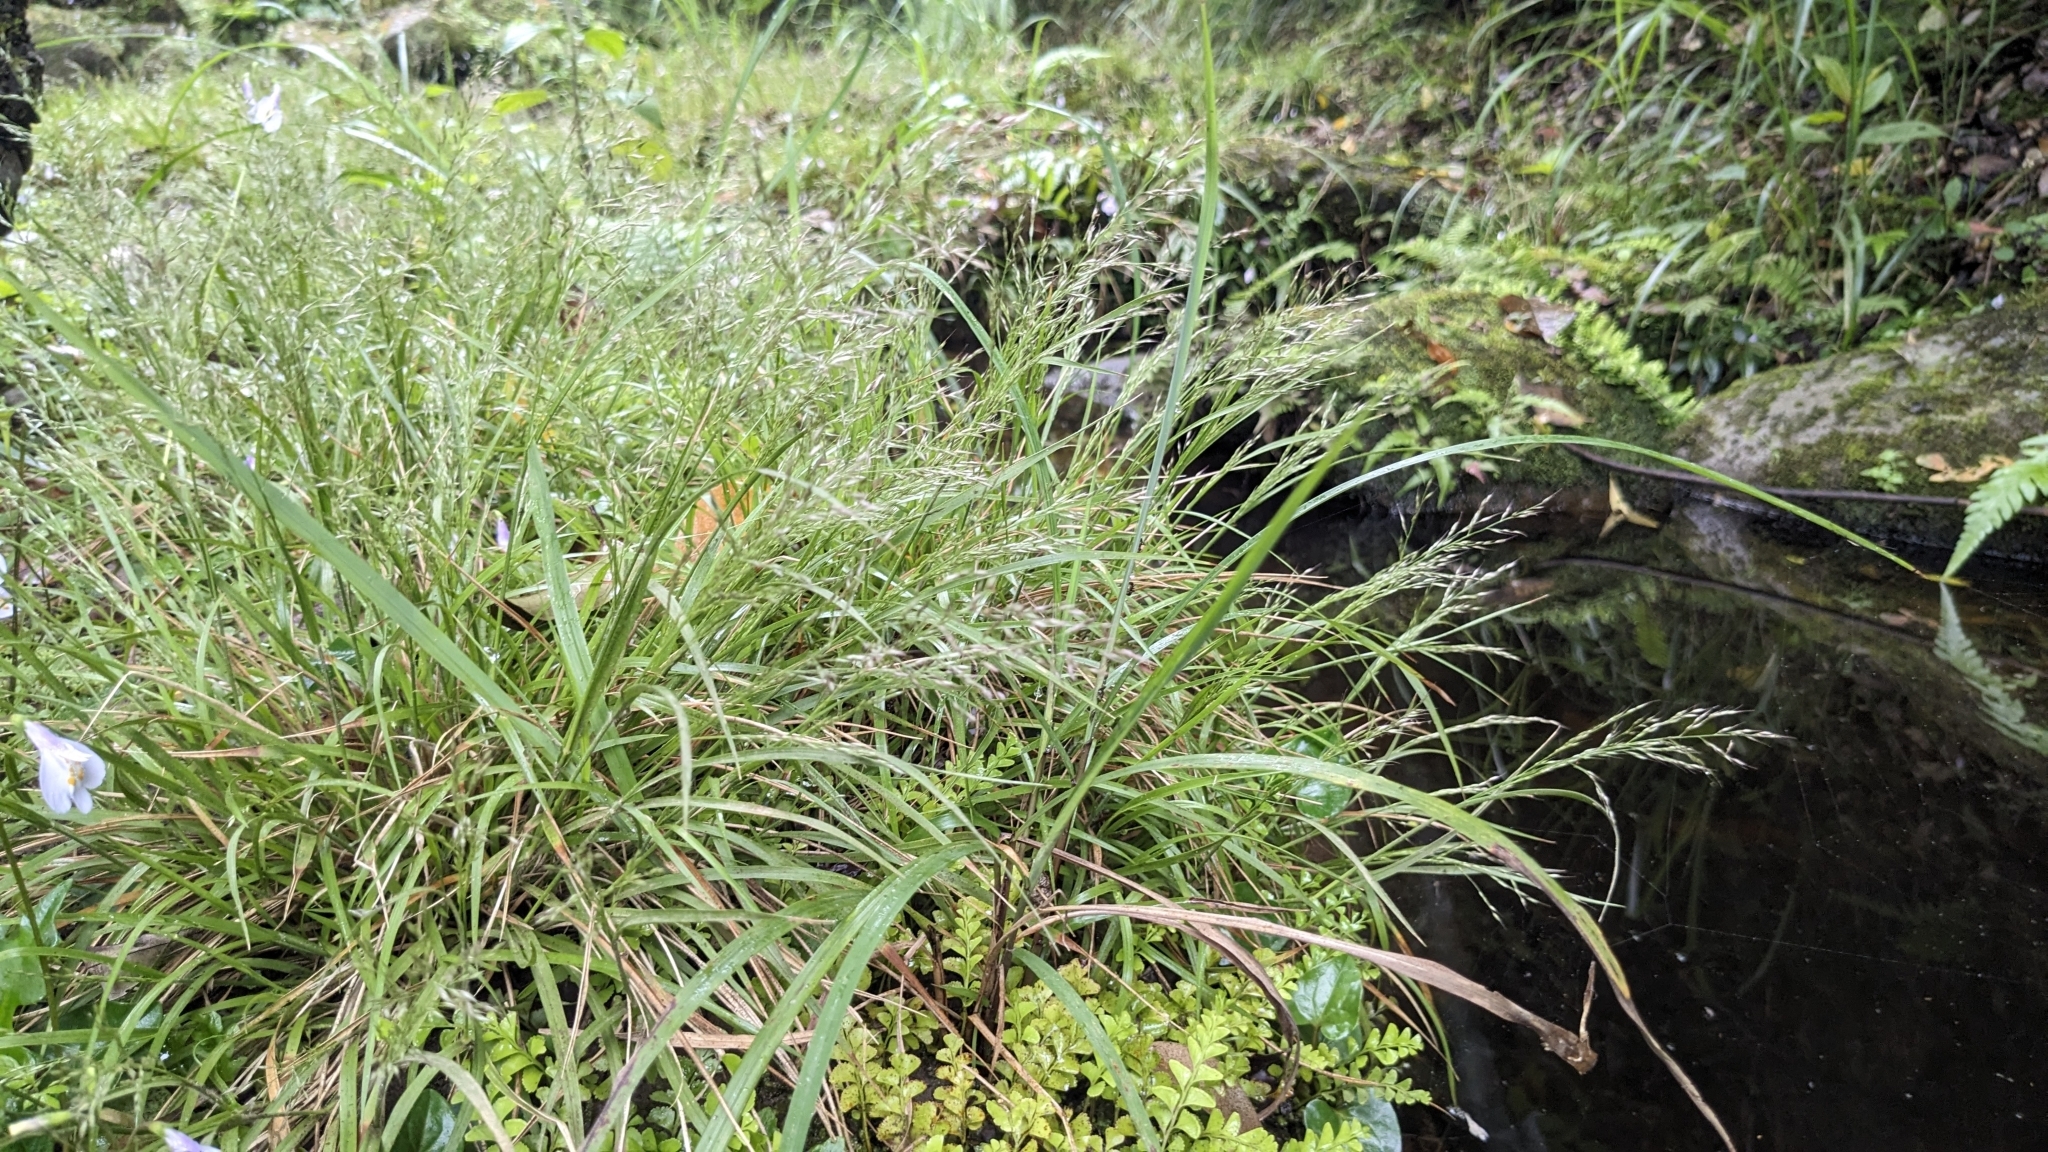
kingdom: Plantae
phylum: Tracheophyta
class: Liliopsida
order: Poales
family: Poaceae
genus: Arundinella
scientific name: Arundinella filiformis
